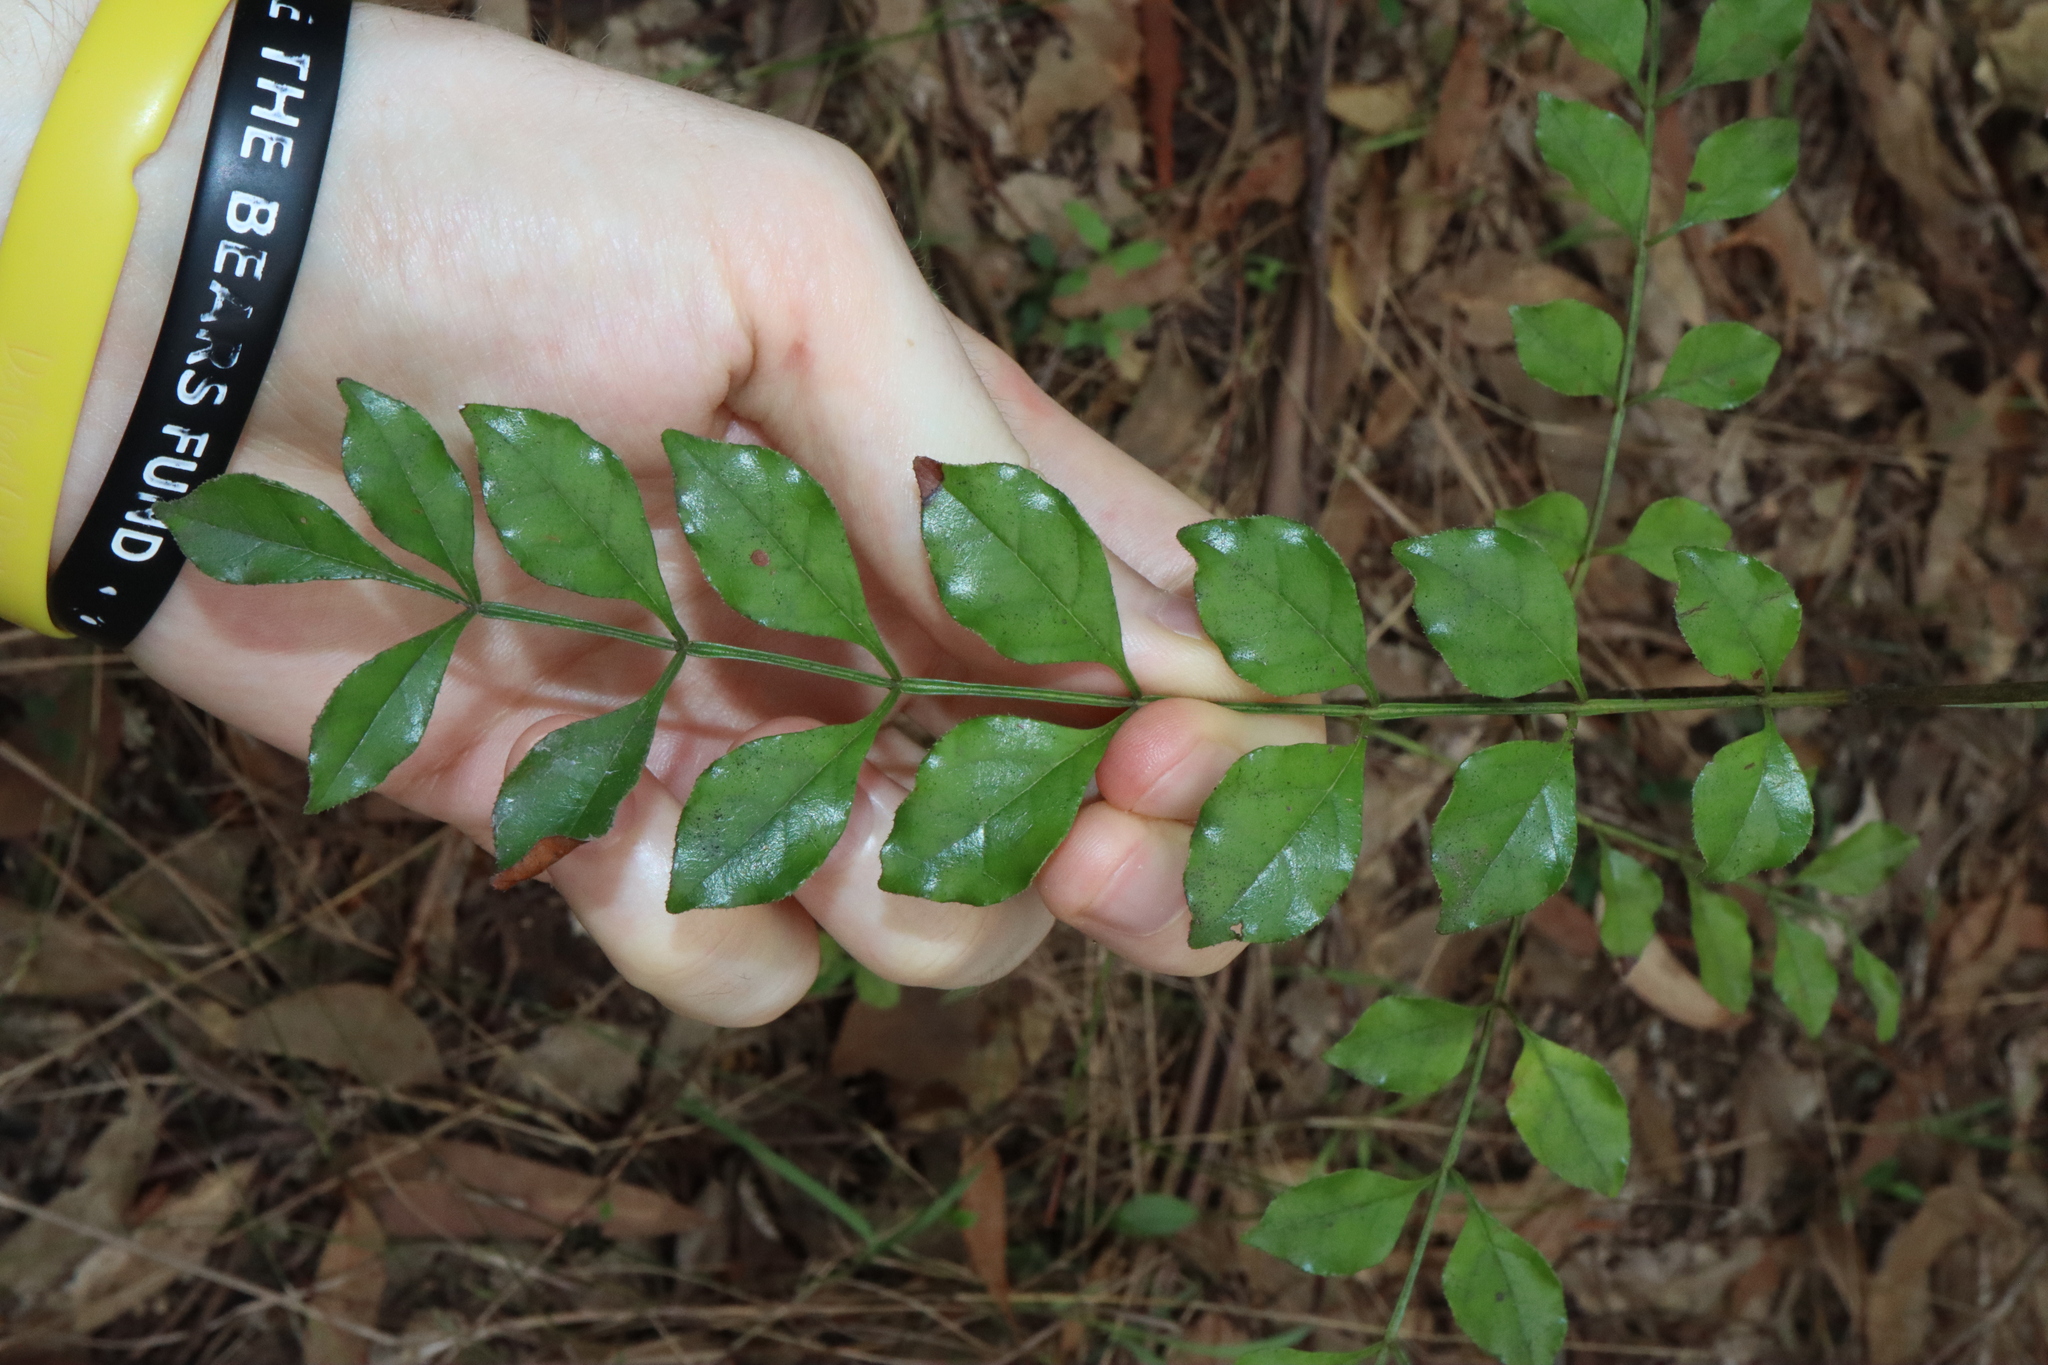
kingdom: Plantae
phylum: Tracheophyta
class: Magnoliopsida
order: Lamiales
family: Oleaceae
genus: Fraxinus
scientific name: Fraxinus griffithii
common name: Himalayan ash
